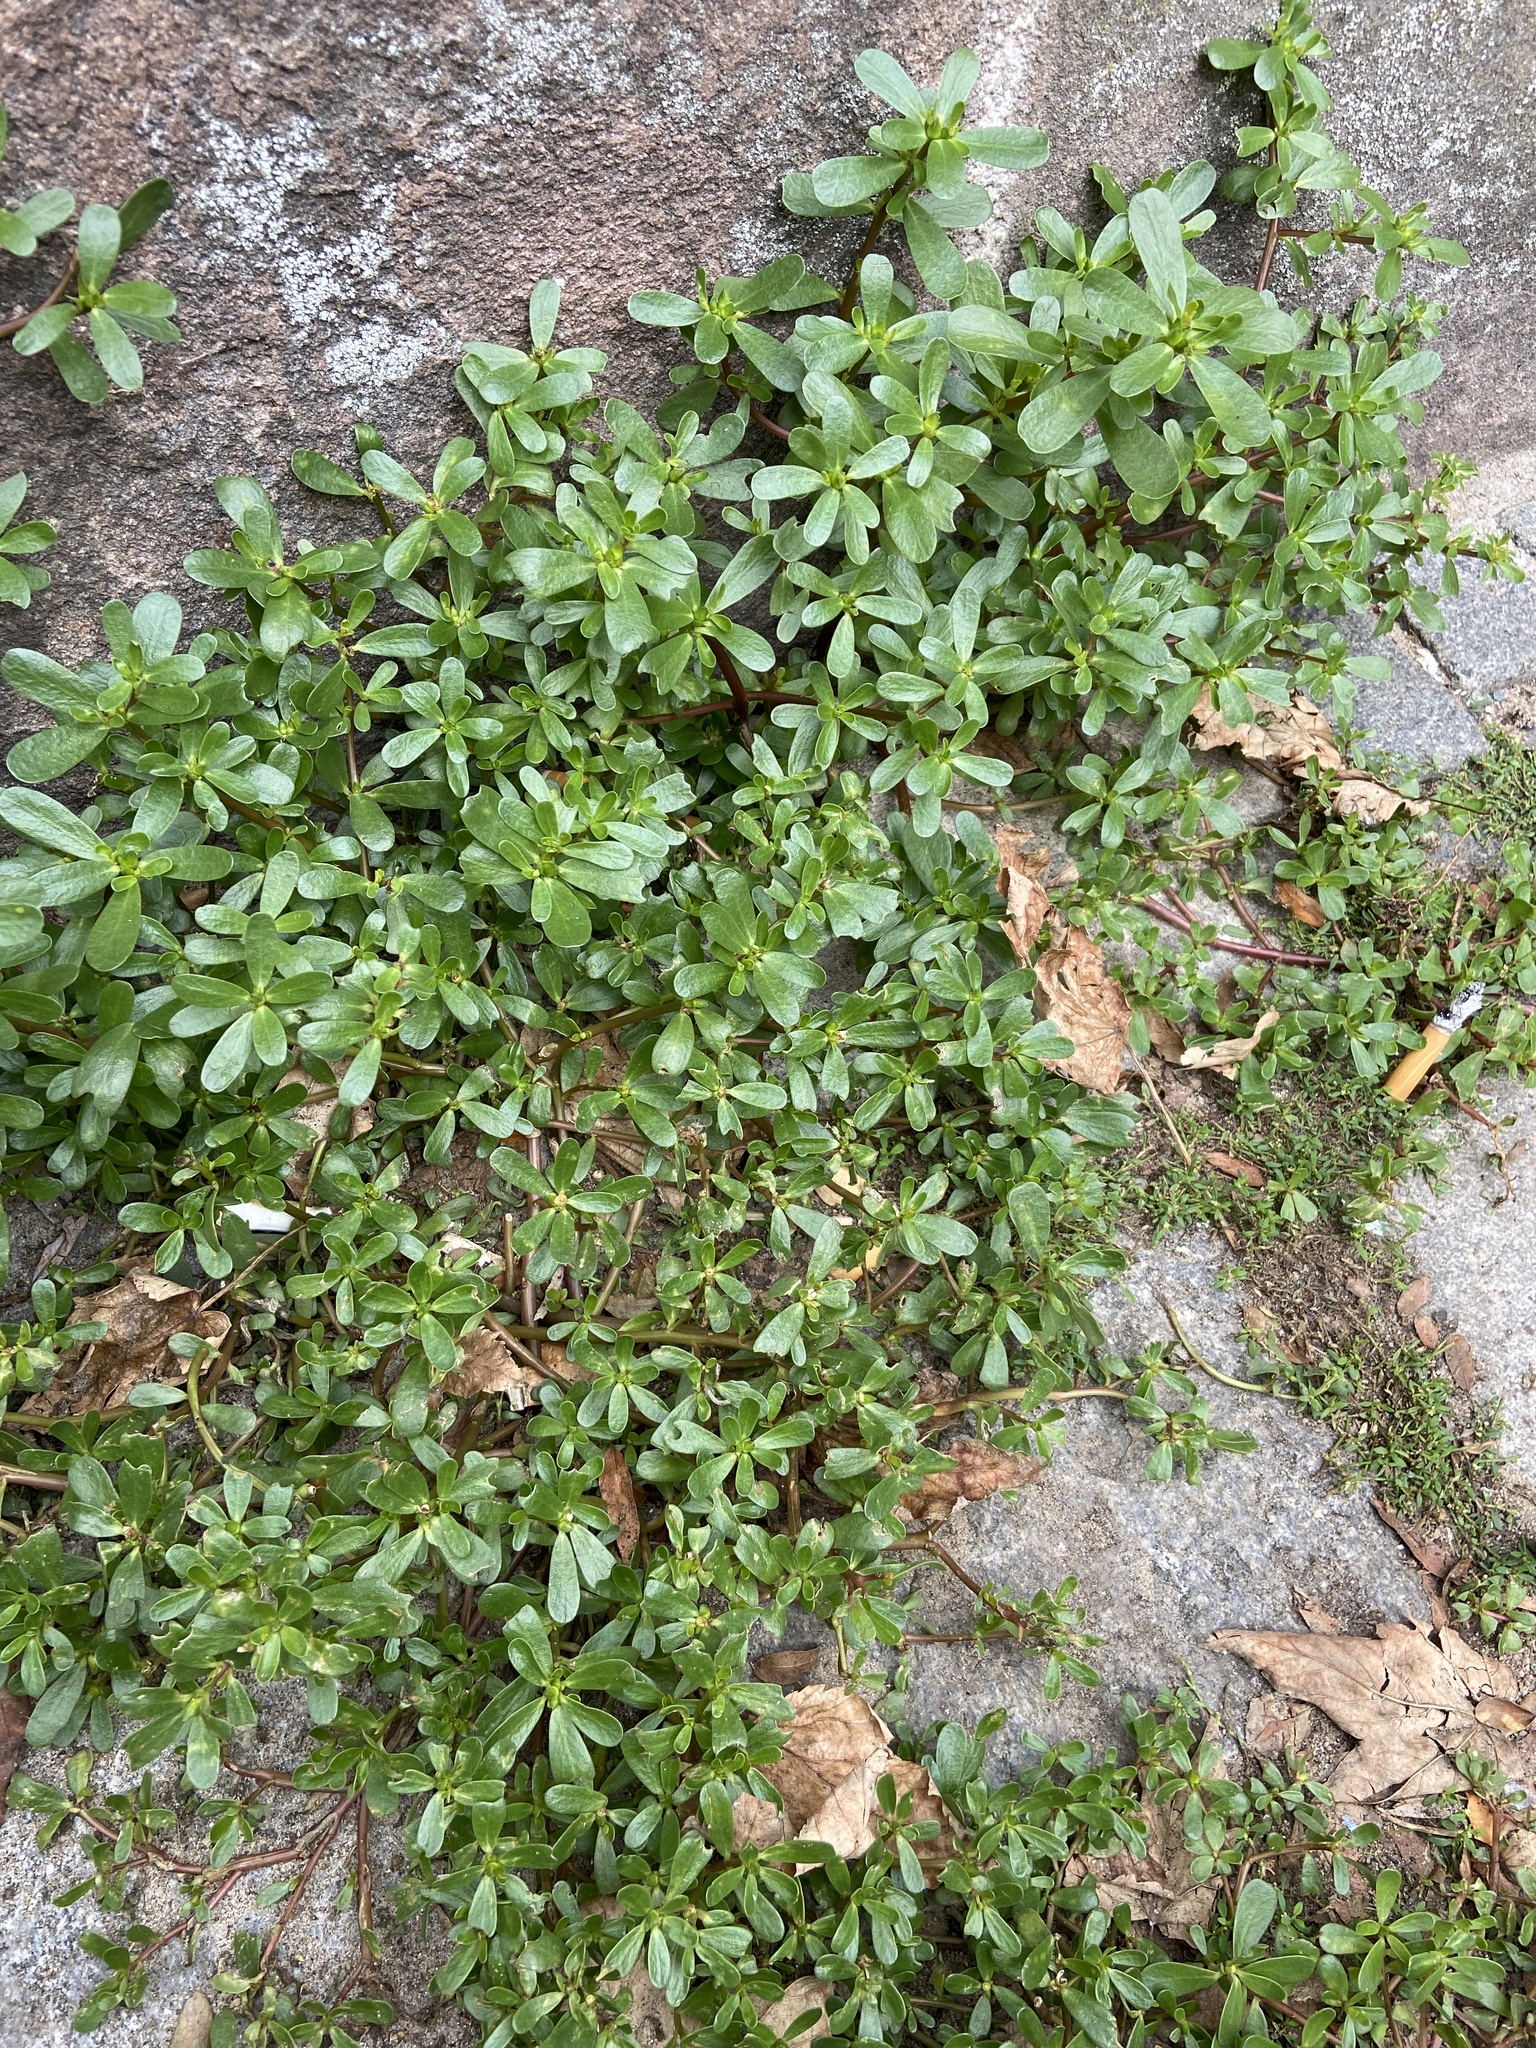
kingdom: Plantae
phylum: Tracheophyta
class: Magnoliopsida
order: Caryophyllales
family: Portulacaceae
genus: Portulaca
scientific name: Portulaca oleracea
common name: Common purslane
